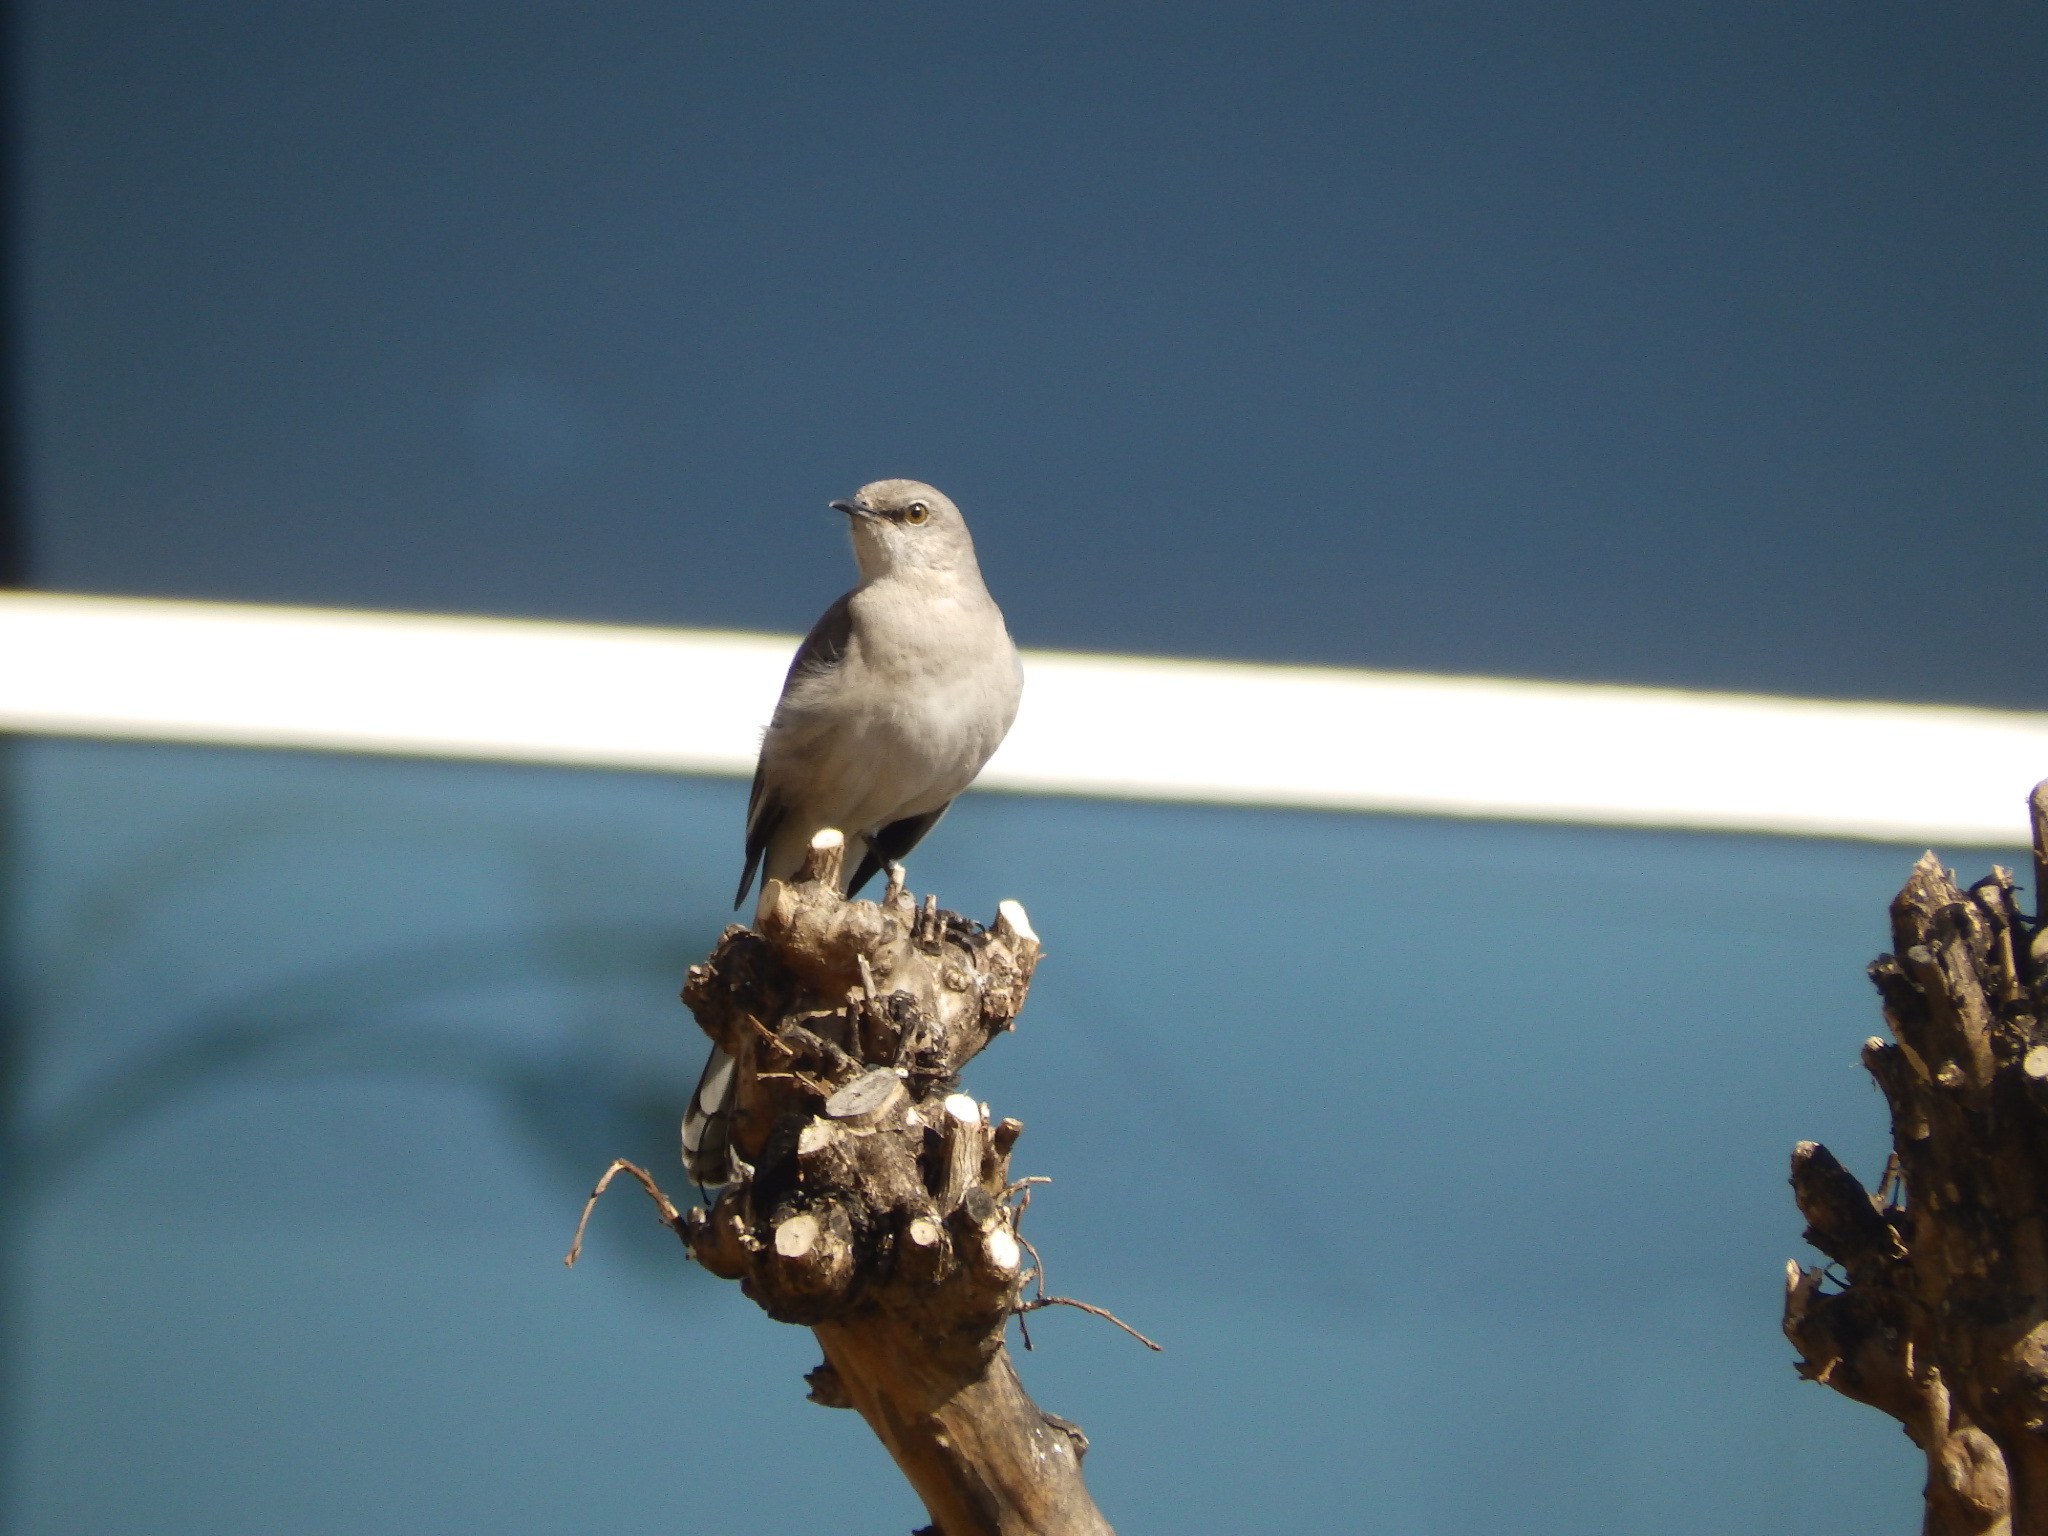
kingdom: Animalia
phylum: Chordata
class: Aves
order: Passeriformes
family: Mimidae
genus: Mimus
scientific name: Mimus polyglottos
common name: Northern mockingbird
